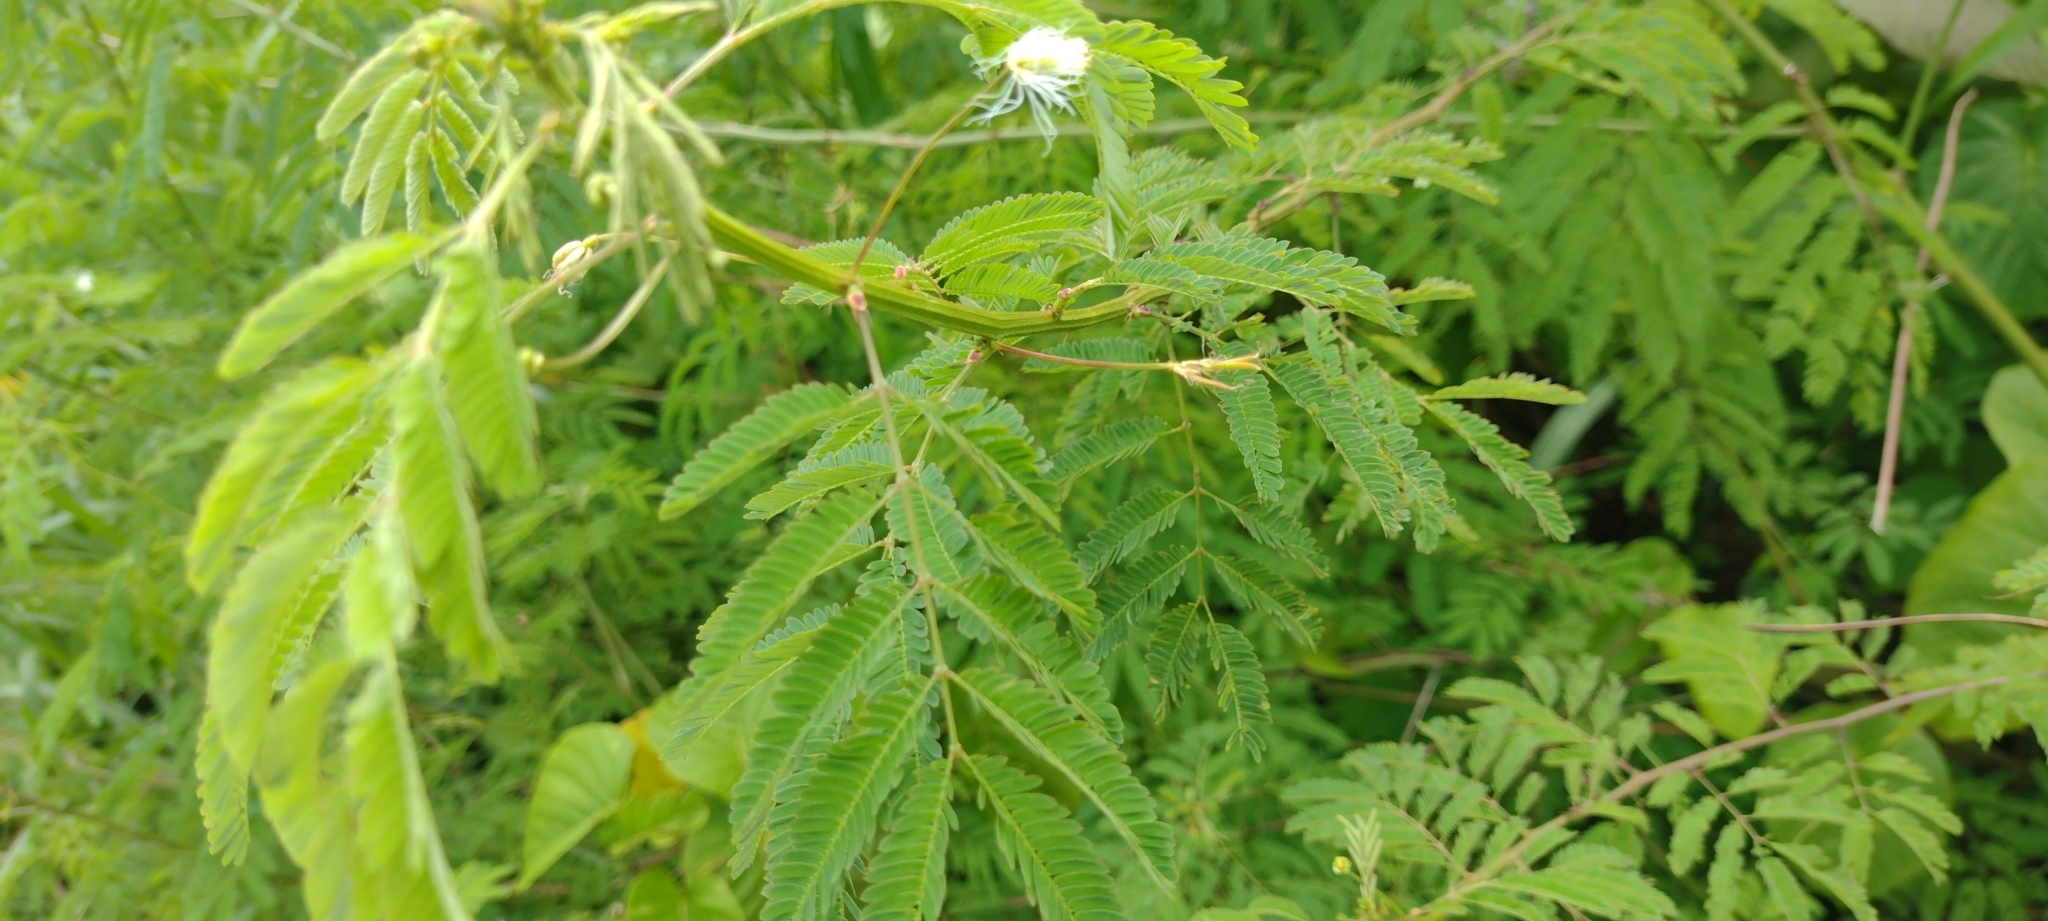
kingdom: Plantae
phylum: Tracheophyta
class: Magnoliopsida
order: Fabales
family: Fabaceae
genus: Leucaena
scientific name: Leucaena leucocephala
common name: White leadtree
